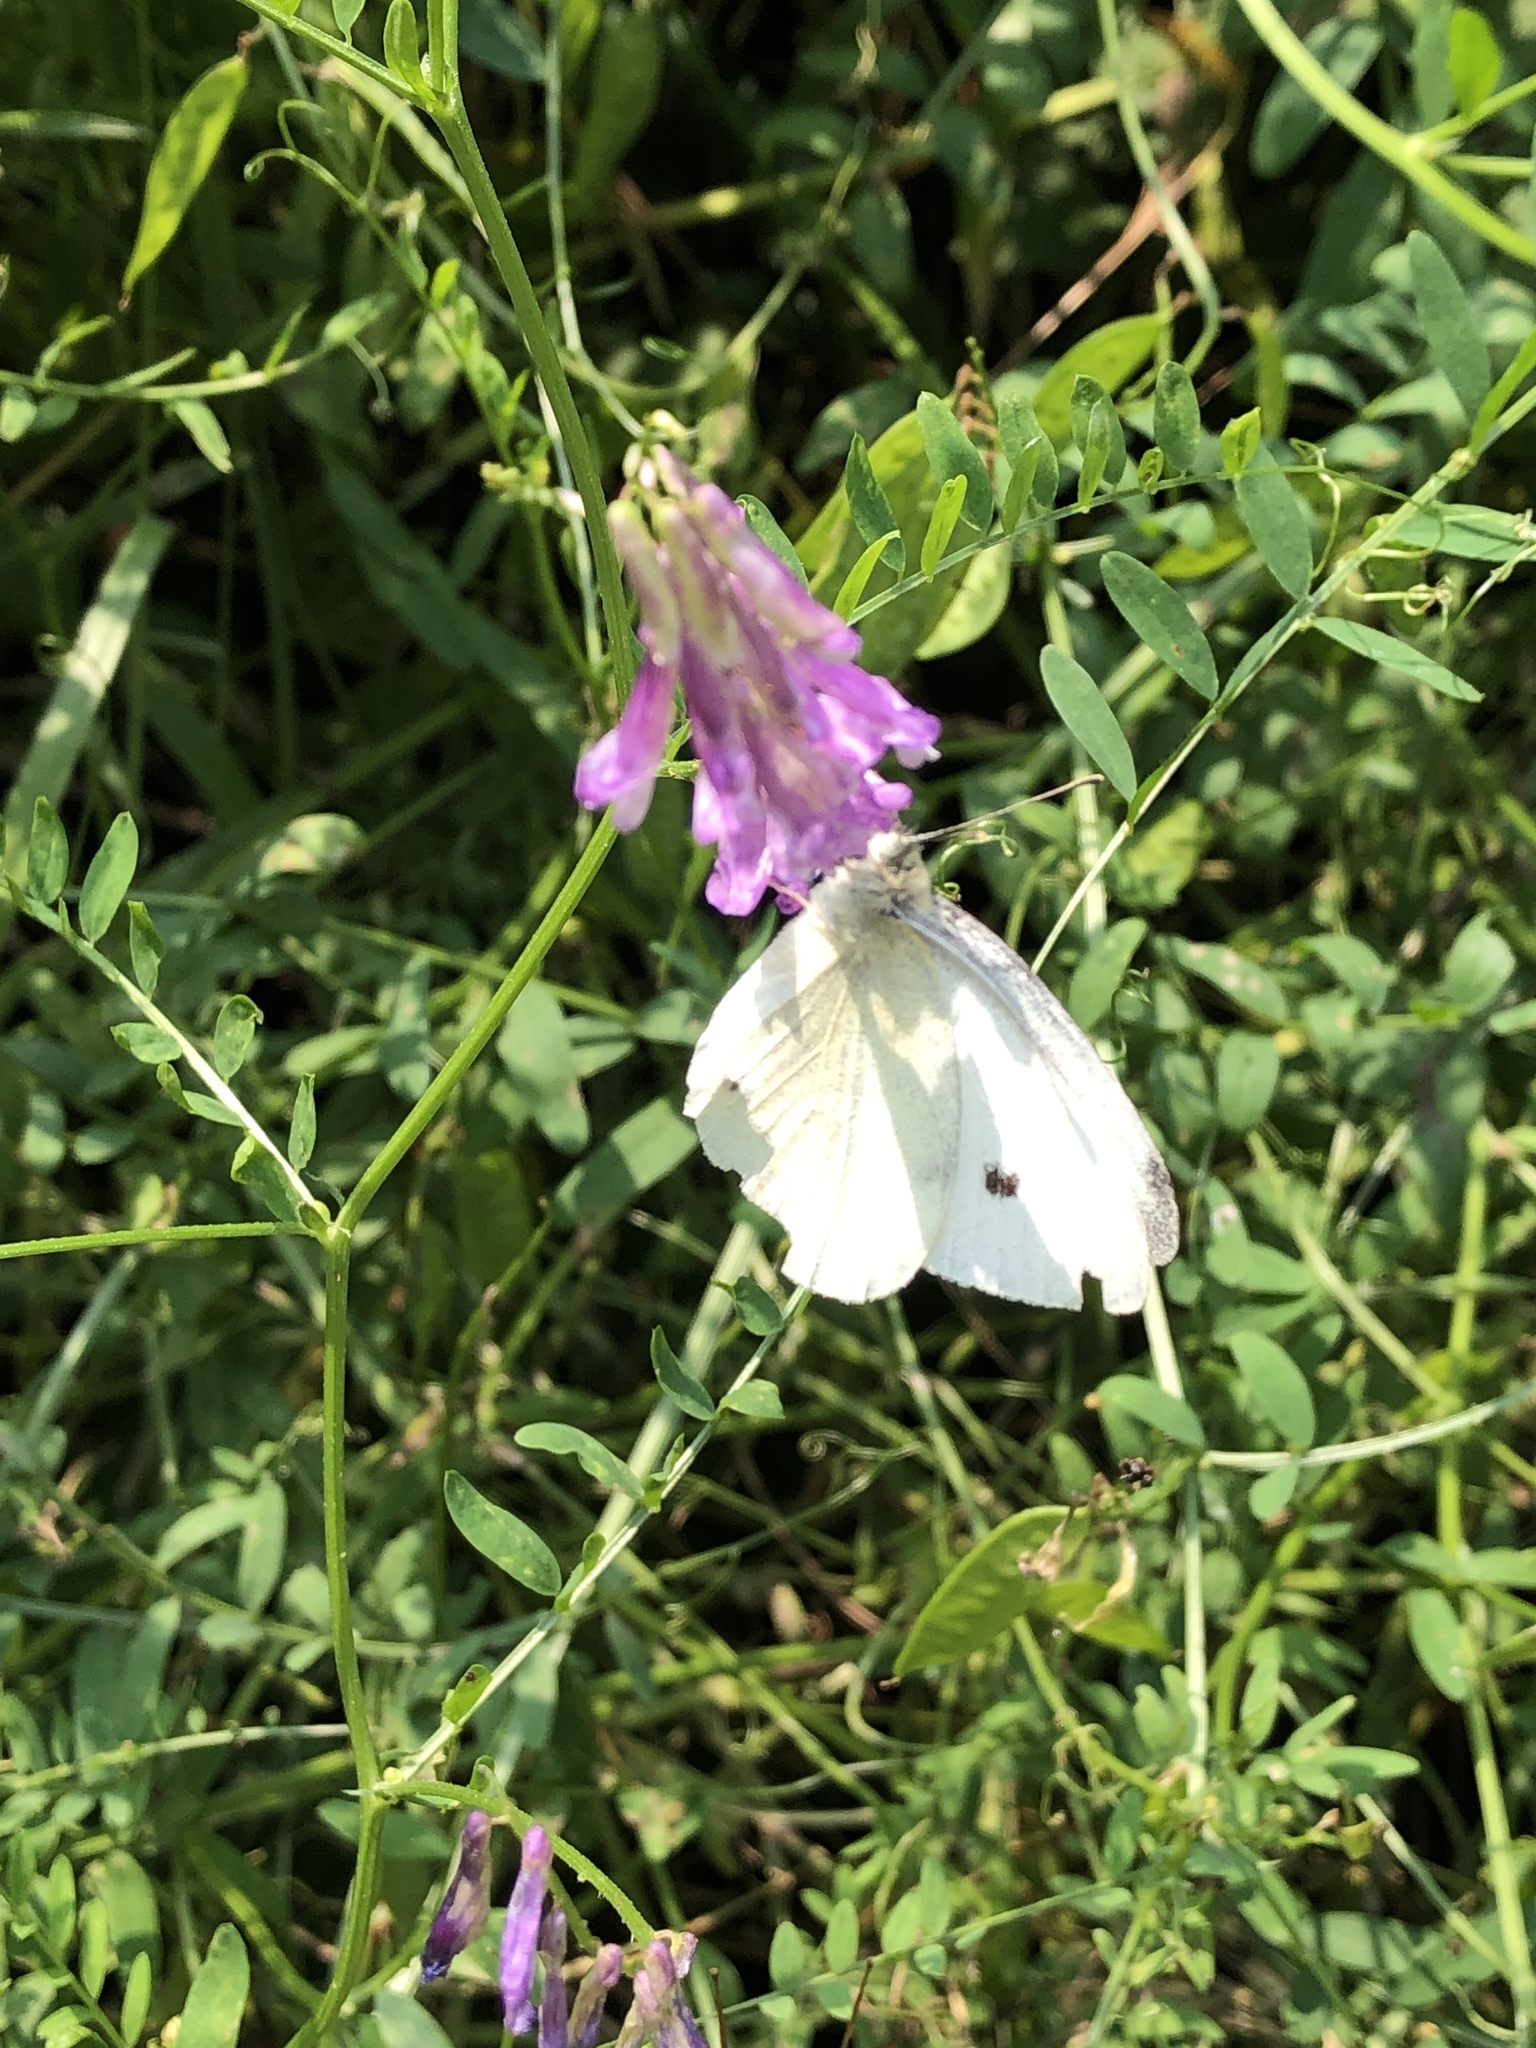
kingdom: Animalia
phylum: Arthropoda
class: Insecta
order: Lepidoptera
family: Pieridae
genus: Pieris
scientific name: Pieris rapae
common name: Small white
